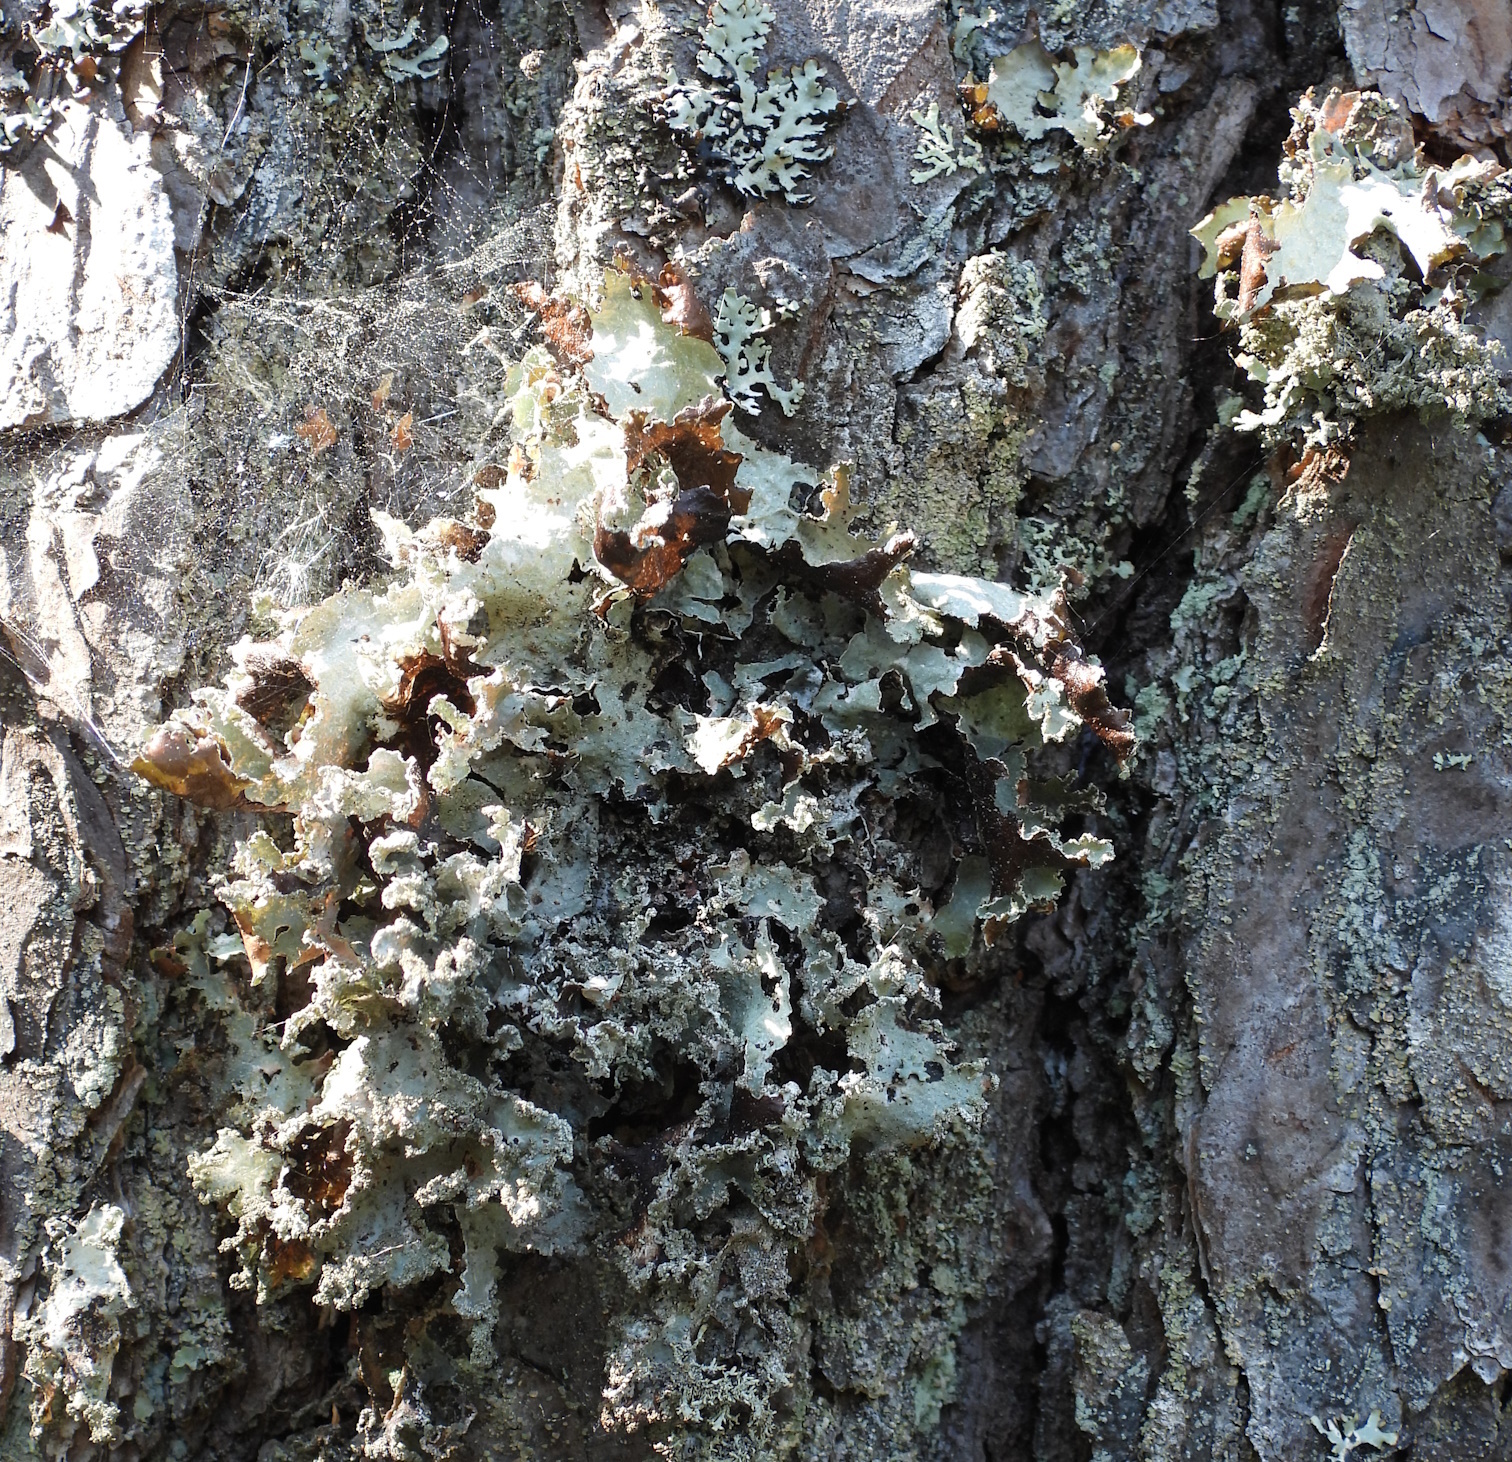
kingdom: Fungi
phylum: Ascomycota
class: Lecanoromycetes
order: Lecanorales
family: Parmeliaceae
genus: Platismatia
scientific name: Platismatia glauca
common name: Varied rag lichen
